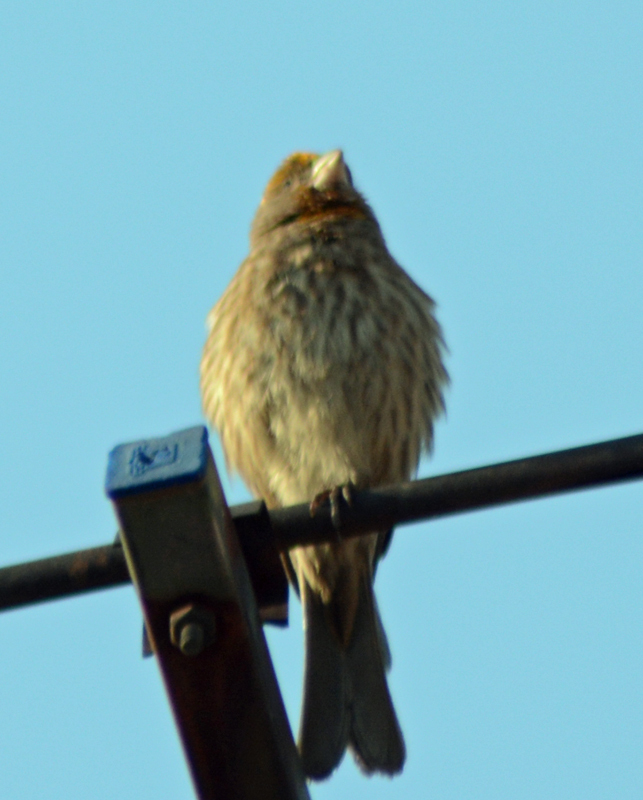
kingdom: Animalia
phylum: Chordata
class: Aves
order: Passeriformes
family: Fringillidae
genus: Haemorhous
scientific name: Haemorhous mexicanus
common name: House finch
